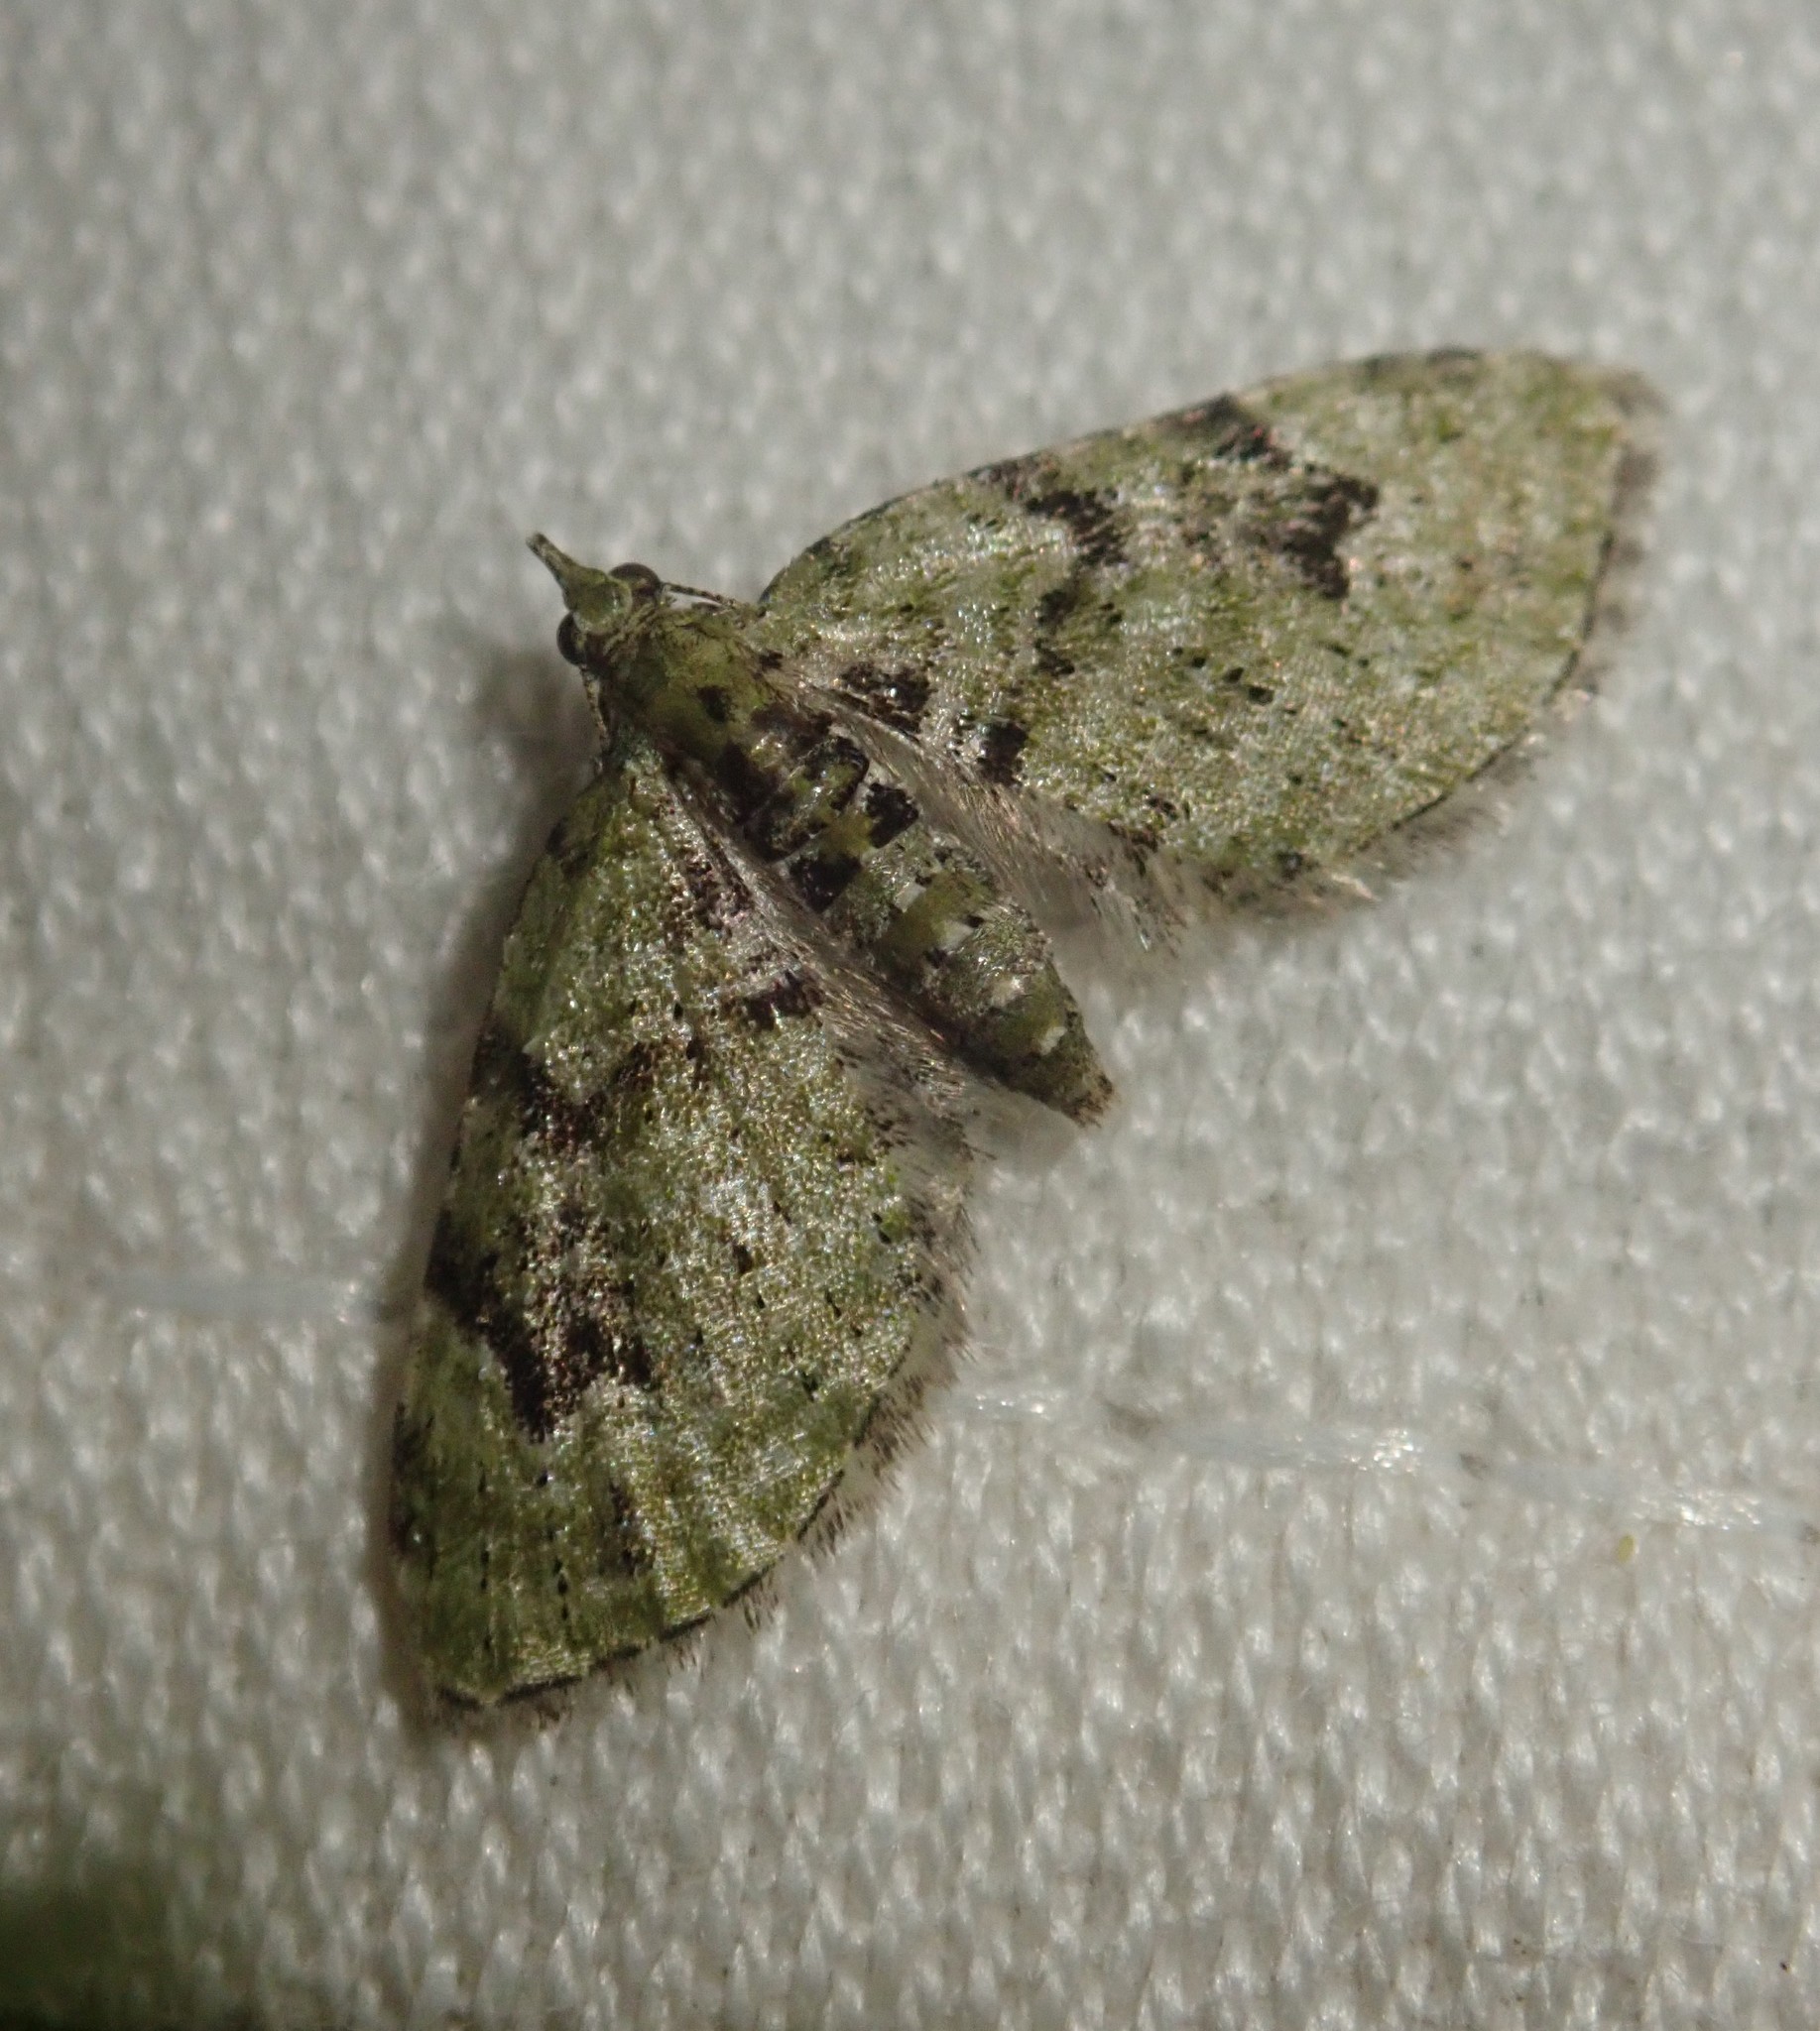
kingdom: Animalia
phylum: Arthropoda
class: Insecta
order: Lepidoptera
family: Geometridae
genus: Chloroclystis
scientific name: Chloroclystis v-ata
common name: V-pug
